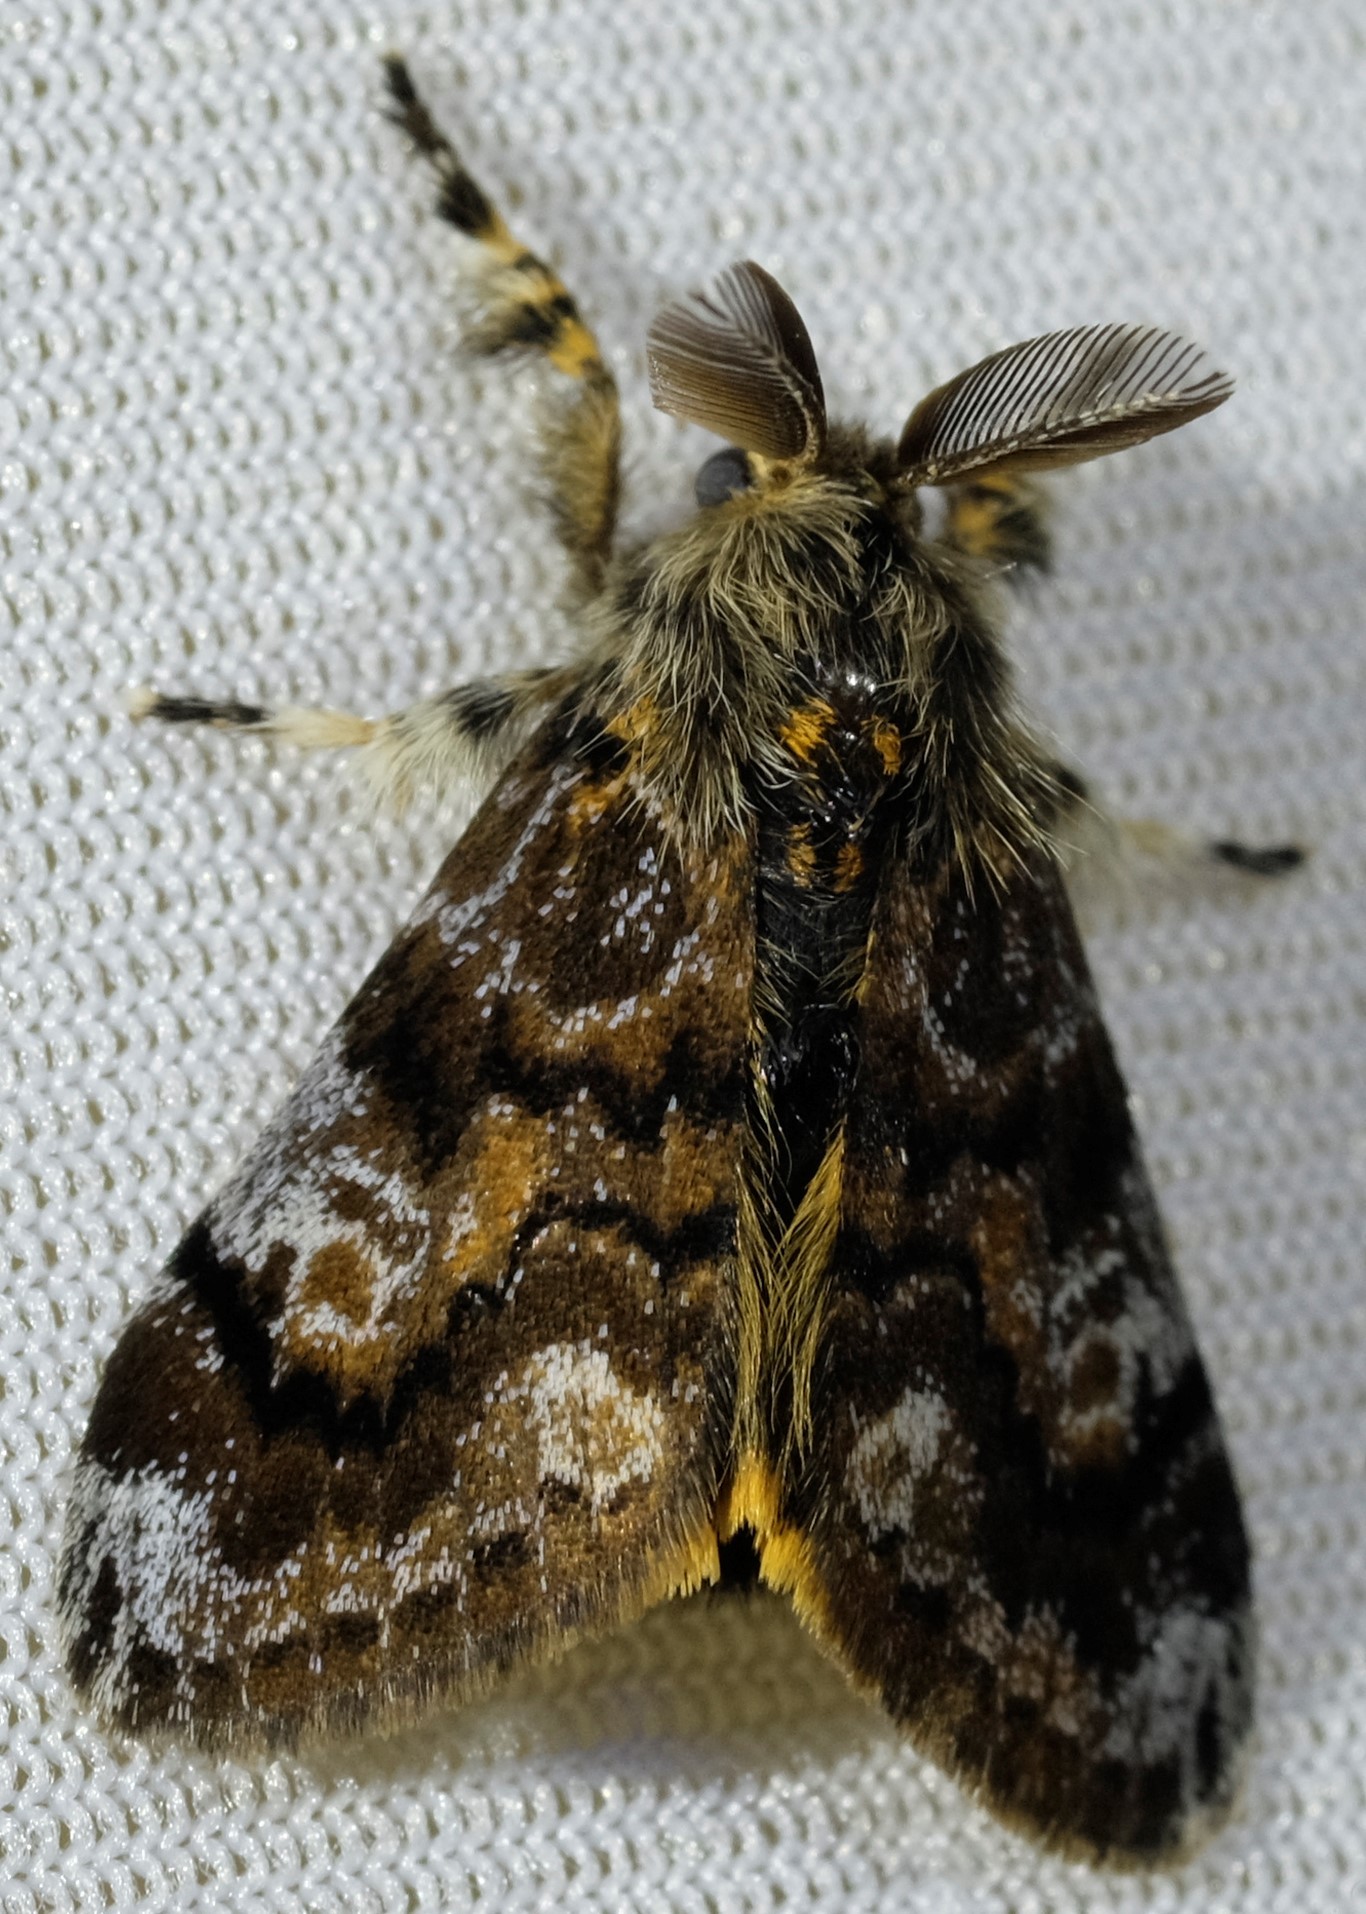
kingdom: Animalia
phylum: Arthropoda
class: Insecta
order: Lepidoptera
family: Erebidae
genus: Orgyia
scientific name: Orgyia
